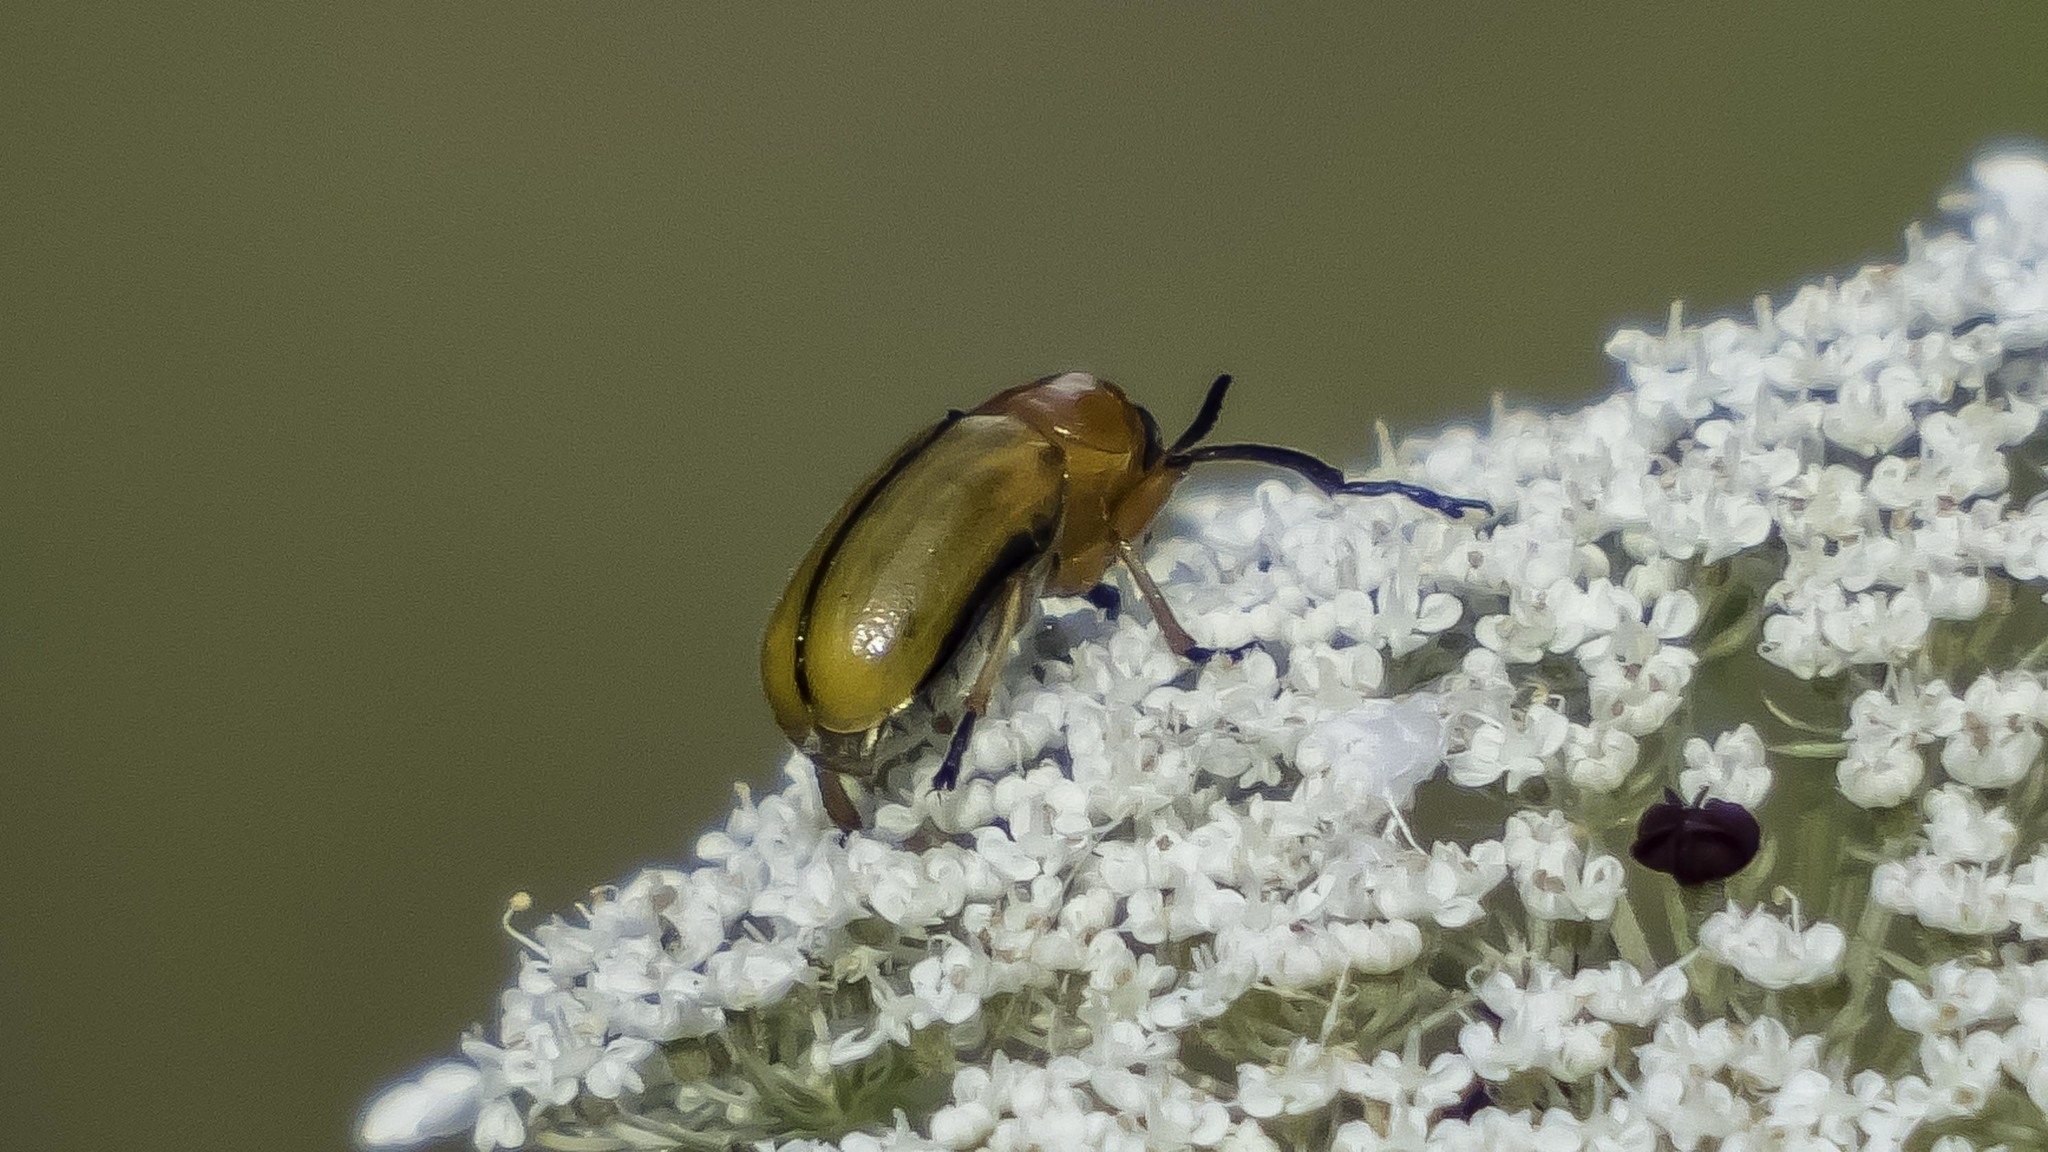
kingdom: Animalia
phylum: Arthropoda
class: Insecta
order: Coleoptera
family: Chrysomelidae
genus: Anomoea
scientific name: Anomoea laticlavia
